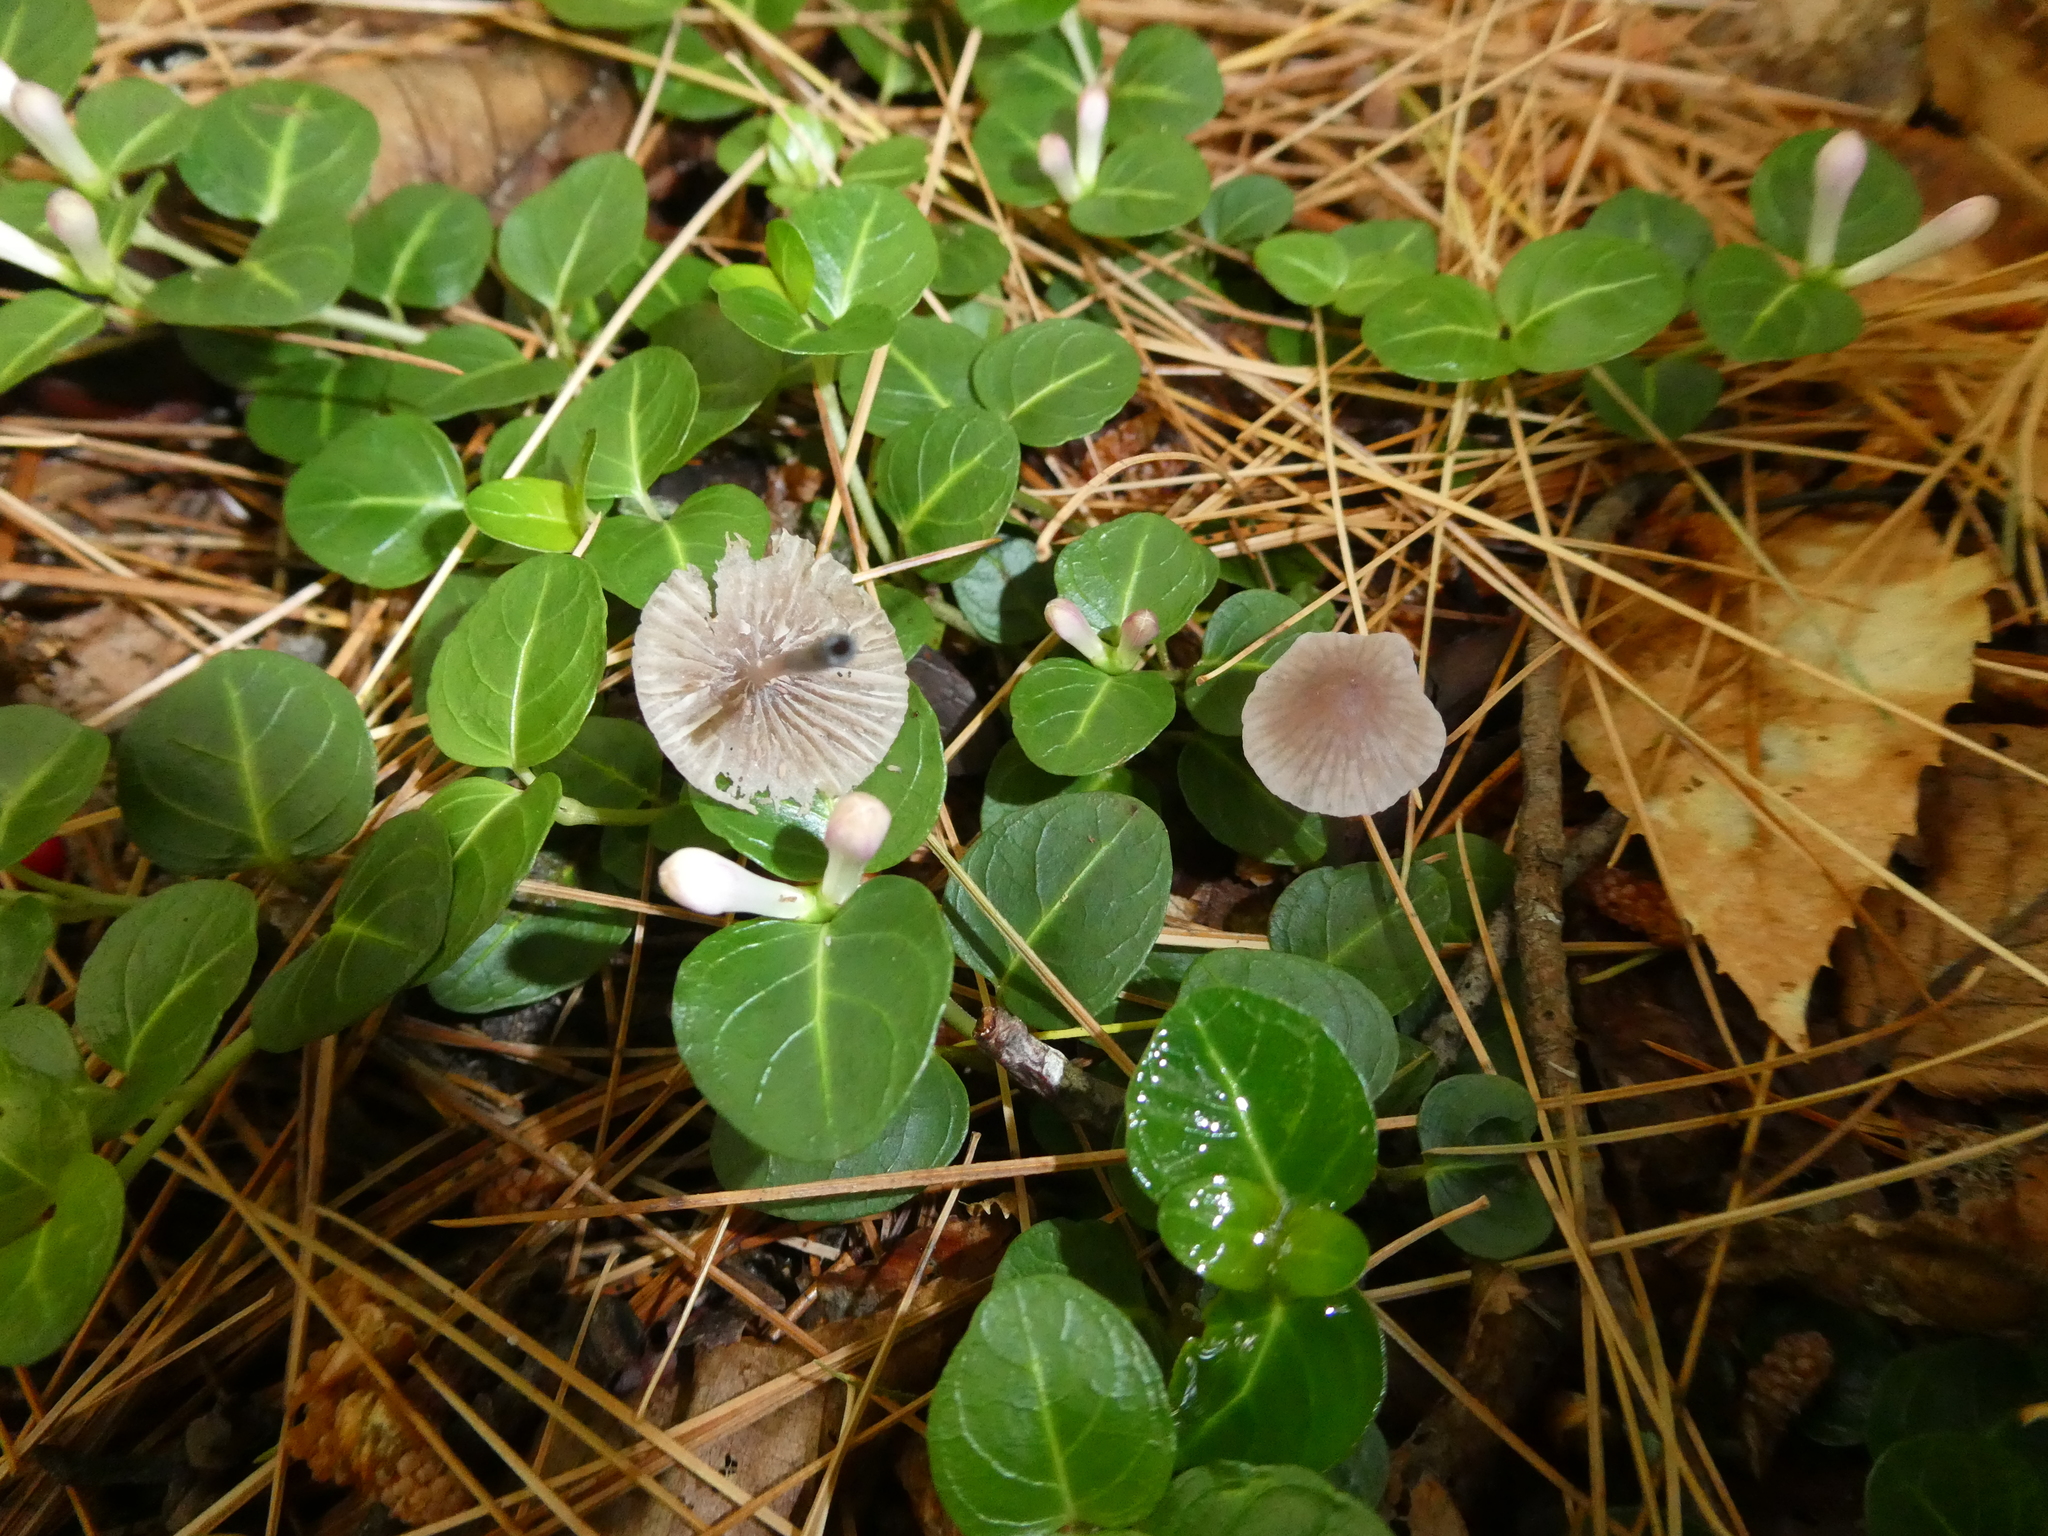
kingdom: Plantae
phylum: Tracheophyta
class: Magnoliopsida
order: Gentianales
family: Rubiaceae
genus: Mitchella
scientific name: Mitchella repens
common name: Partridge-berry
